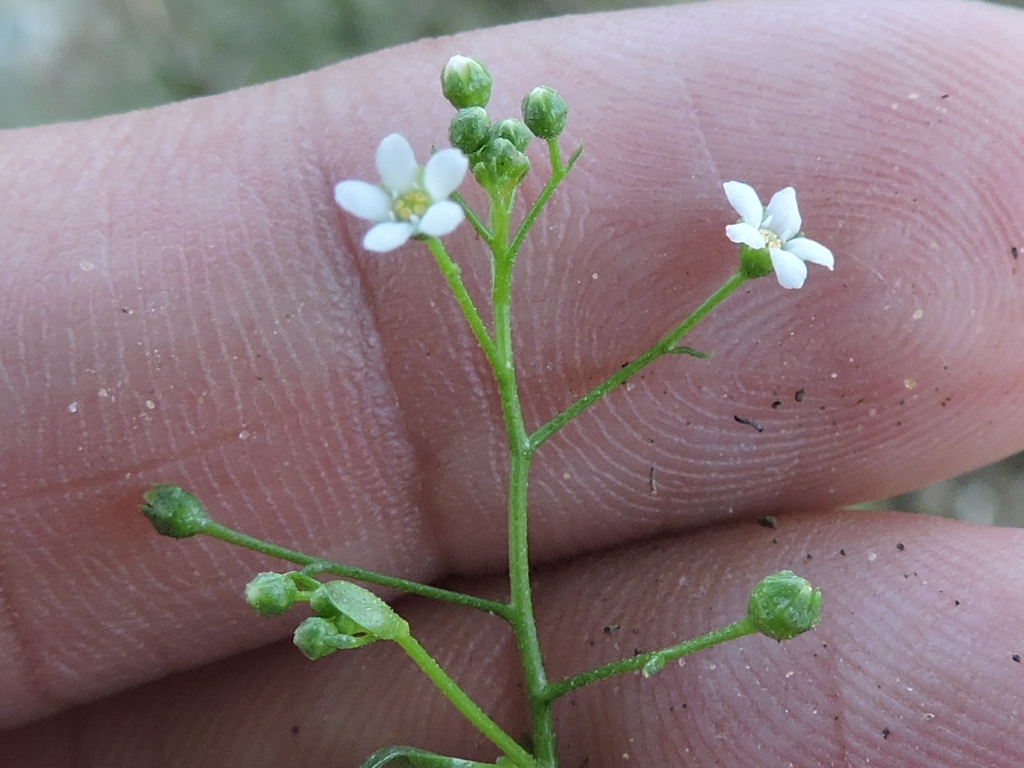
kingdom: Plantae
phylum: Tracheophyta
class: Magnoliopsida
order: Ericales
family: Primulaceae
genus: Samolus
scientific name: Samolus parviflorus
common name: False water pimpernel
